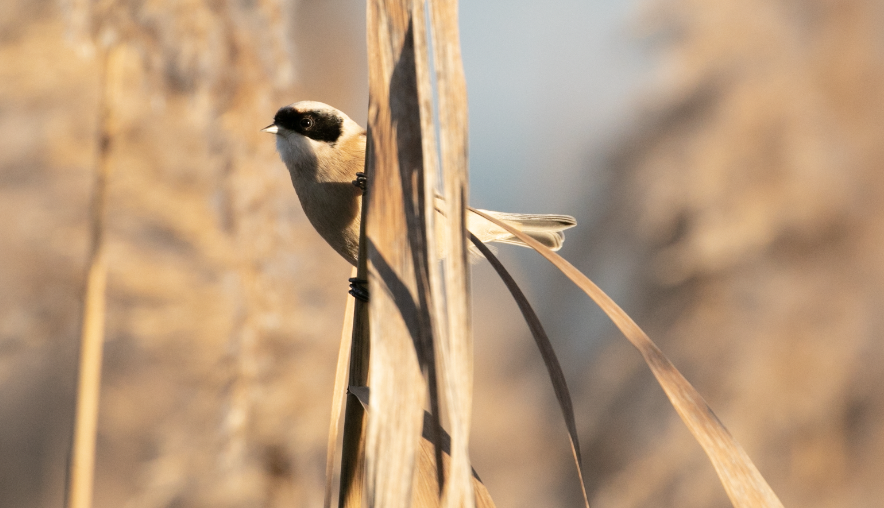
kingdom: Animalia
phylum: Chordata
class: Aves
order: Passeriformes
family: Remizidae
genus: Remiz
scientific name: Remiz pendulinus
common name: Eurasian penduline tit
